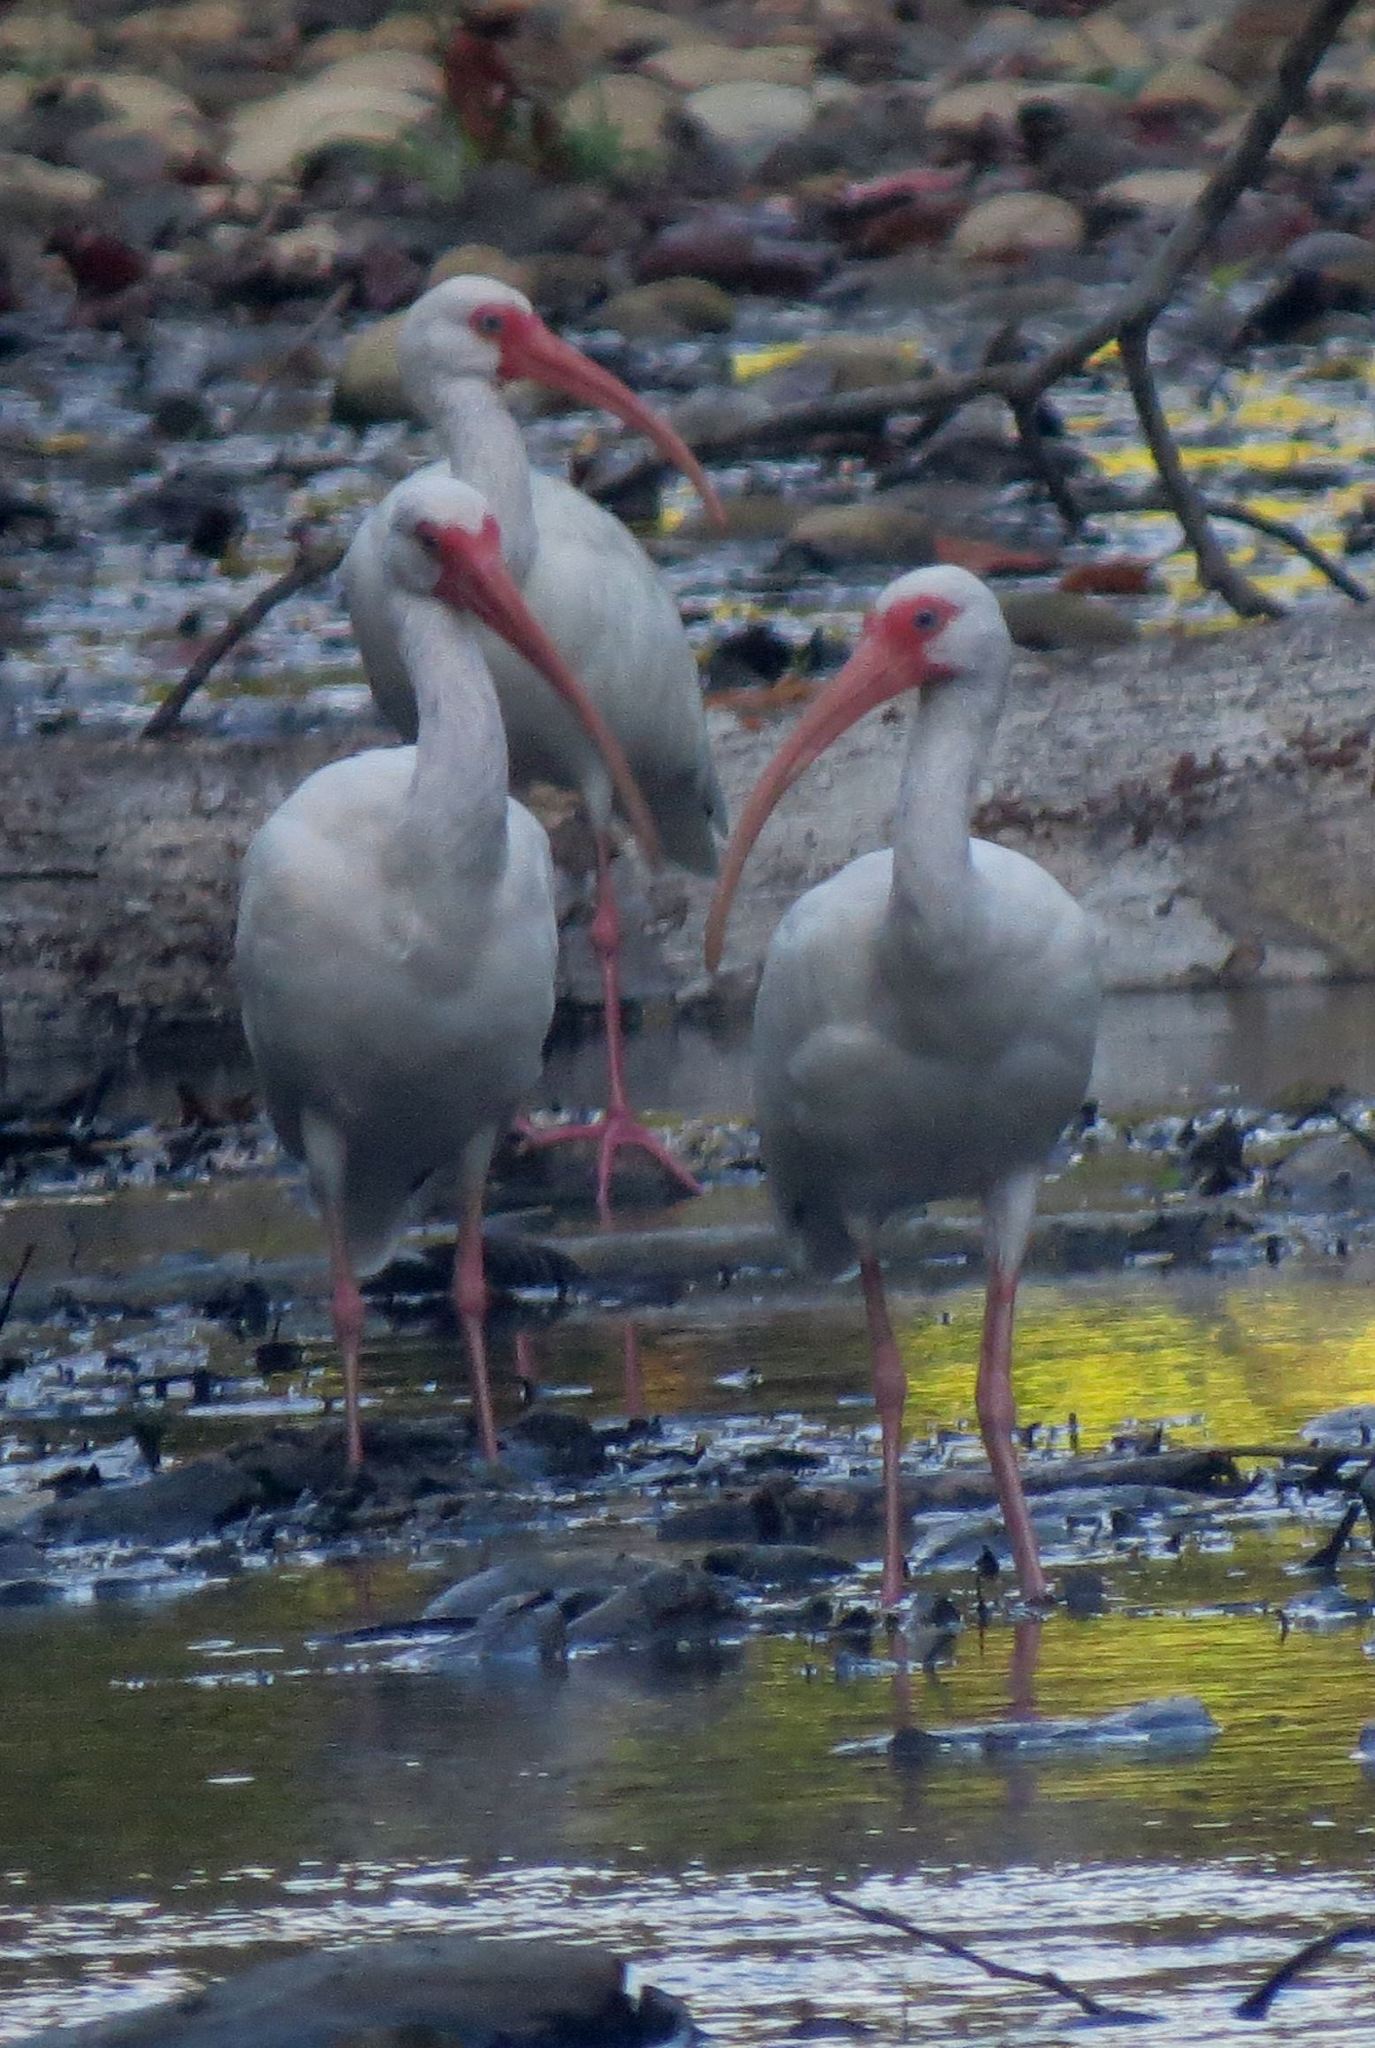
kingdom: Animalia
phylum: Chordata
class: Aves
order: Pelecaniformes
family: Threskiornithidae
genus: Eudocimus
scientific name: Eudocimus albus
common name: White ibis
